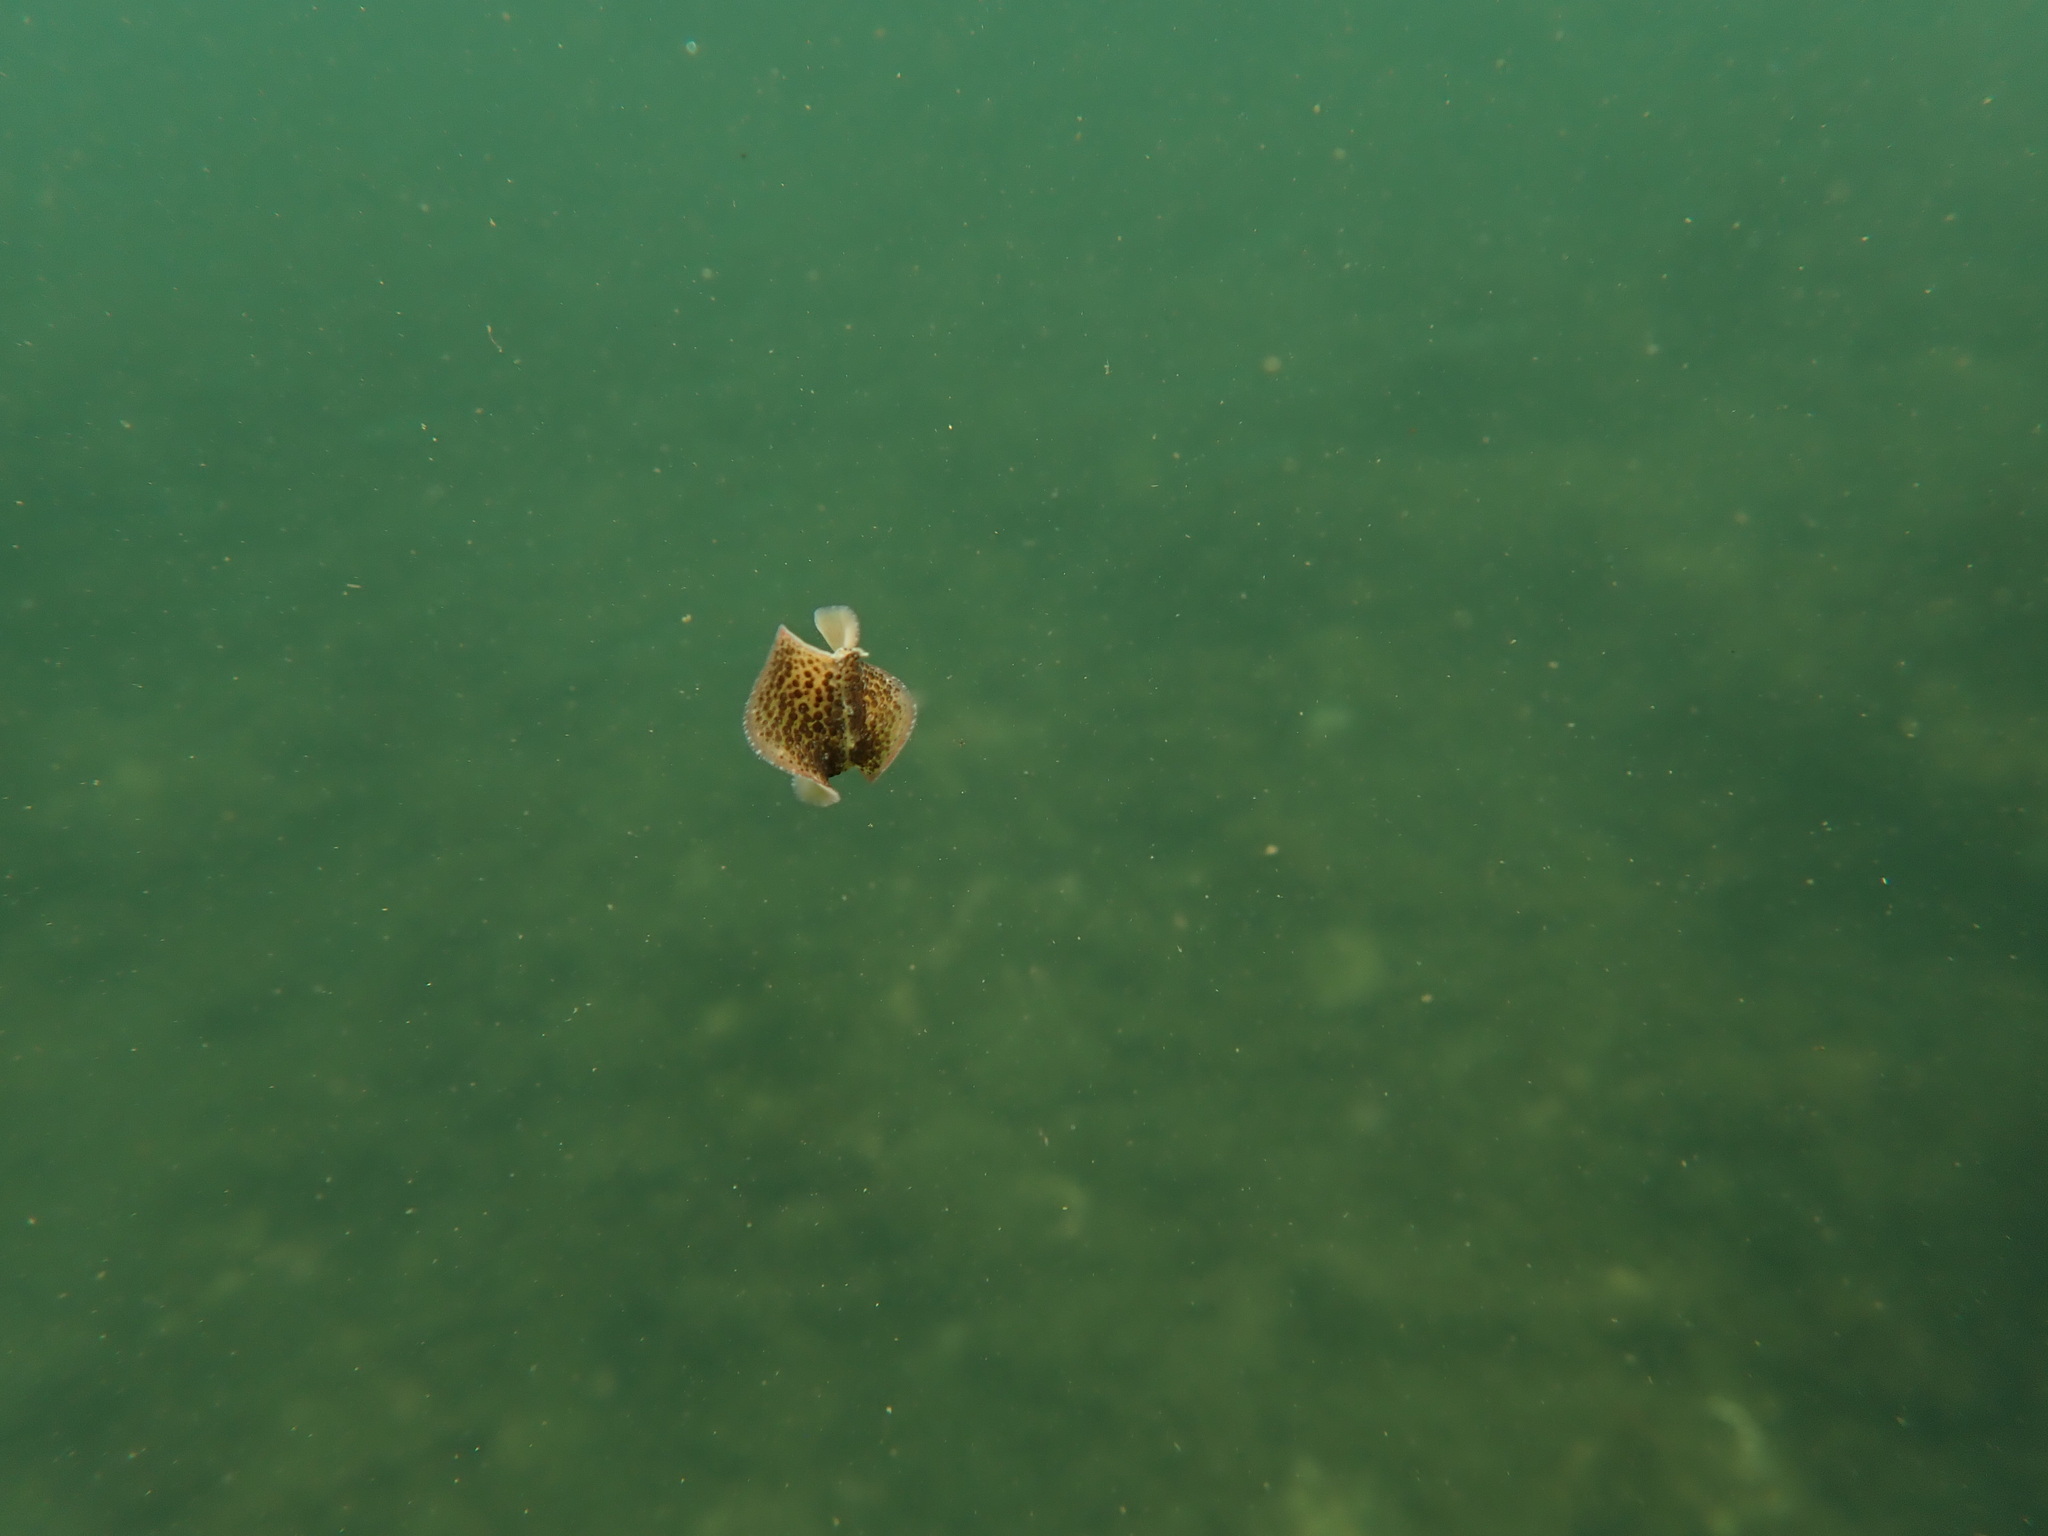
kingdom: Animalia
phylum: Platyhelminthes
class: Turbellaria
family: Pseudocerotidae
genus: Thysanozoon
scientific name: Thysanozoon brocchii
